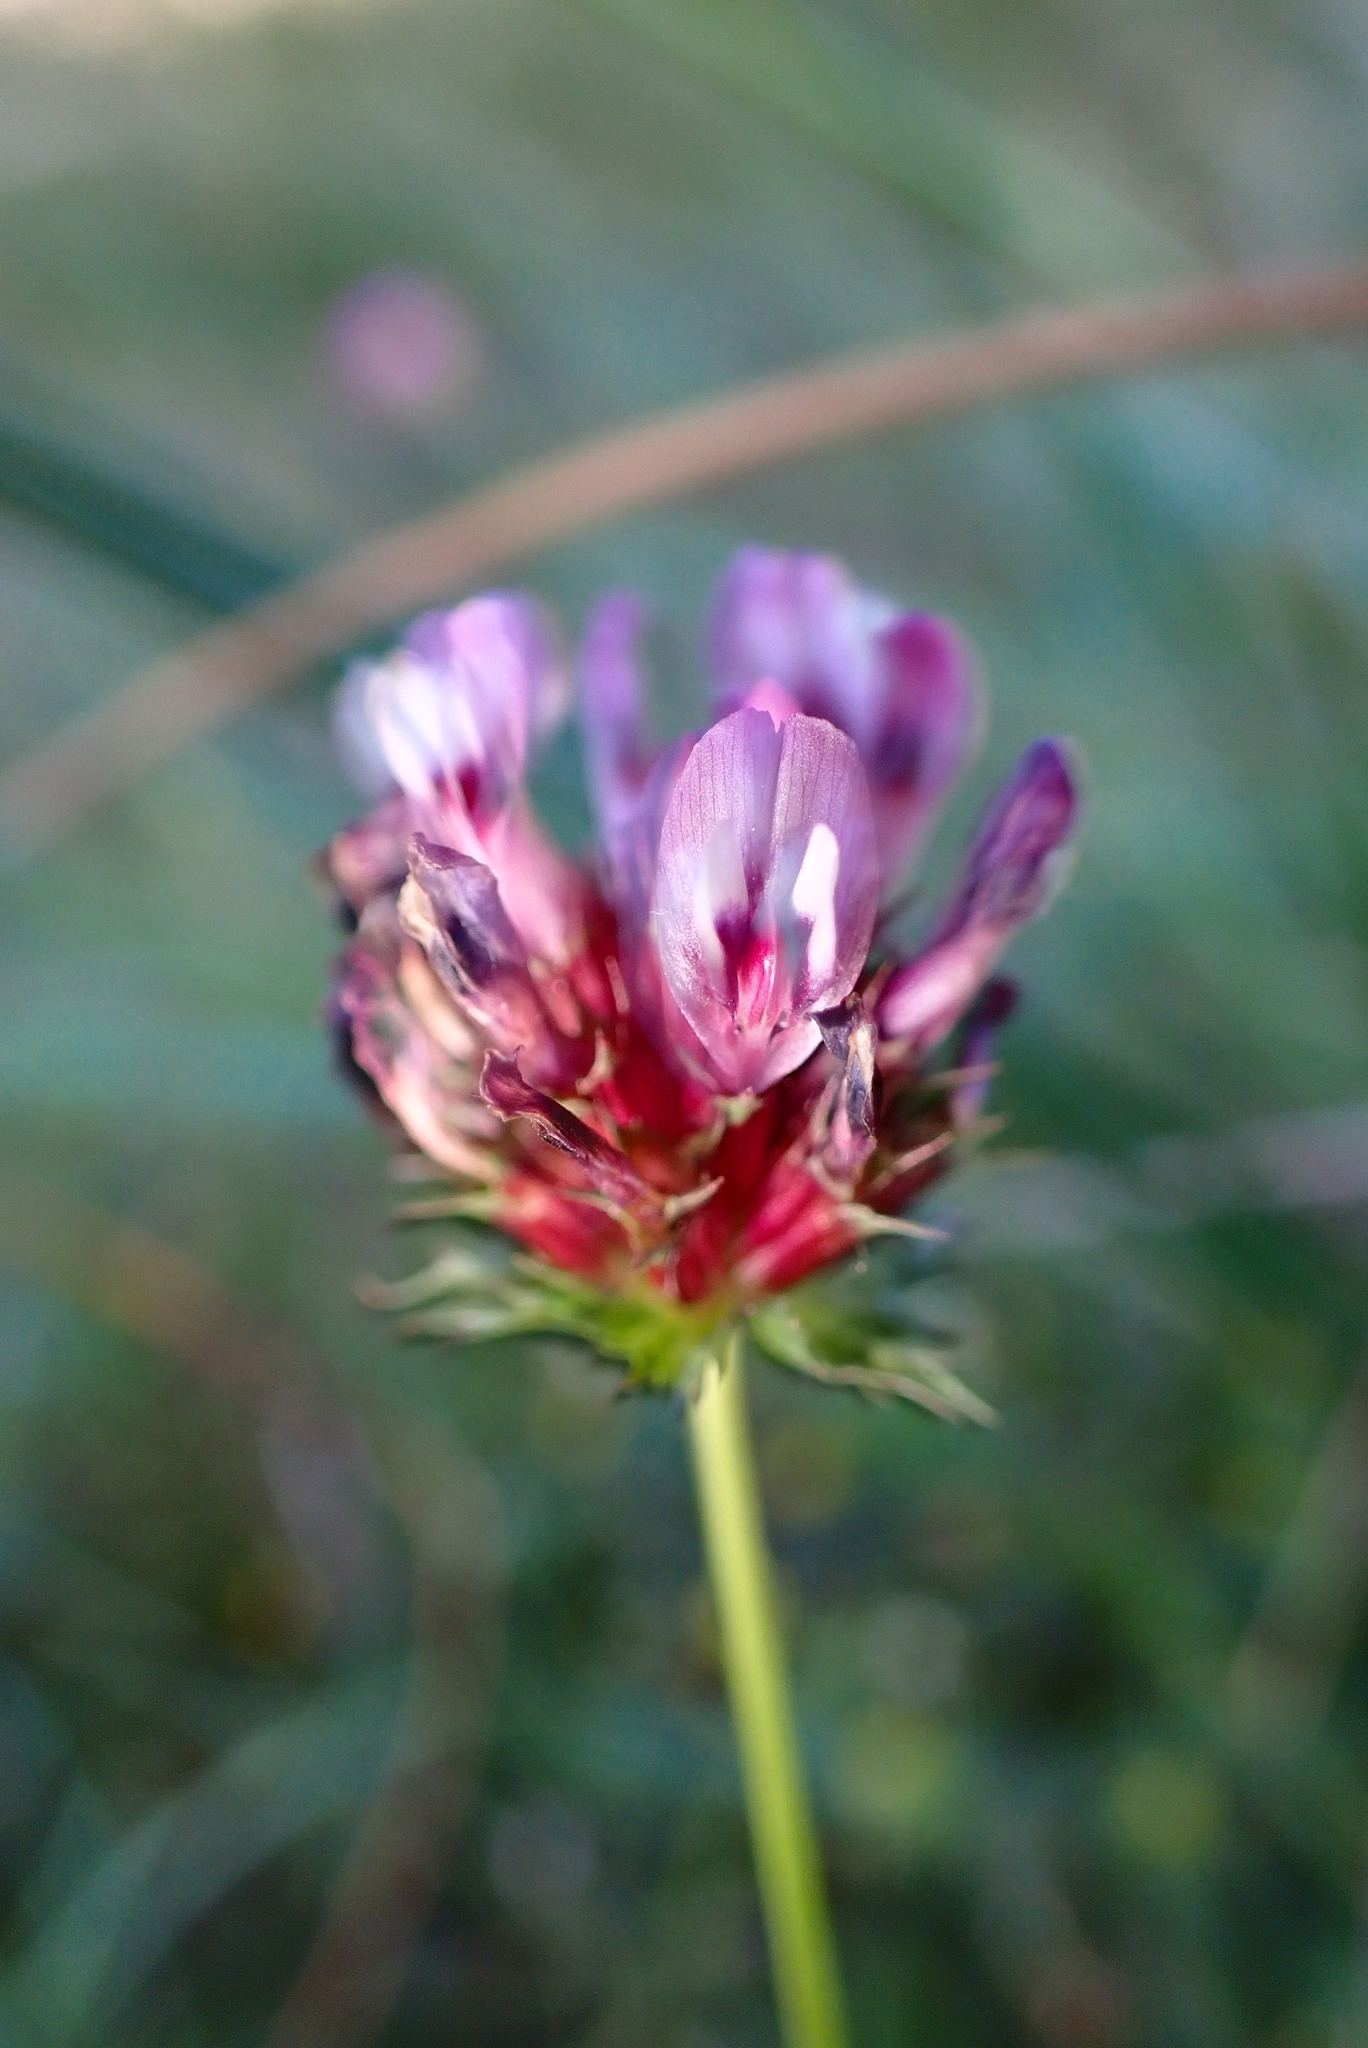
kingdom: Plantae
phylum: Tracheophyta
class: Magnoliopsida
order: Fabales
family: Fabaceae
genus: Trifolium
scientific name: Trifolium willdenovii
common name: Tomcat clover
